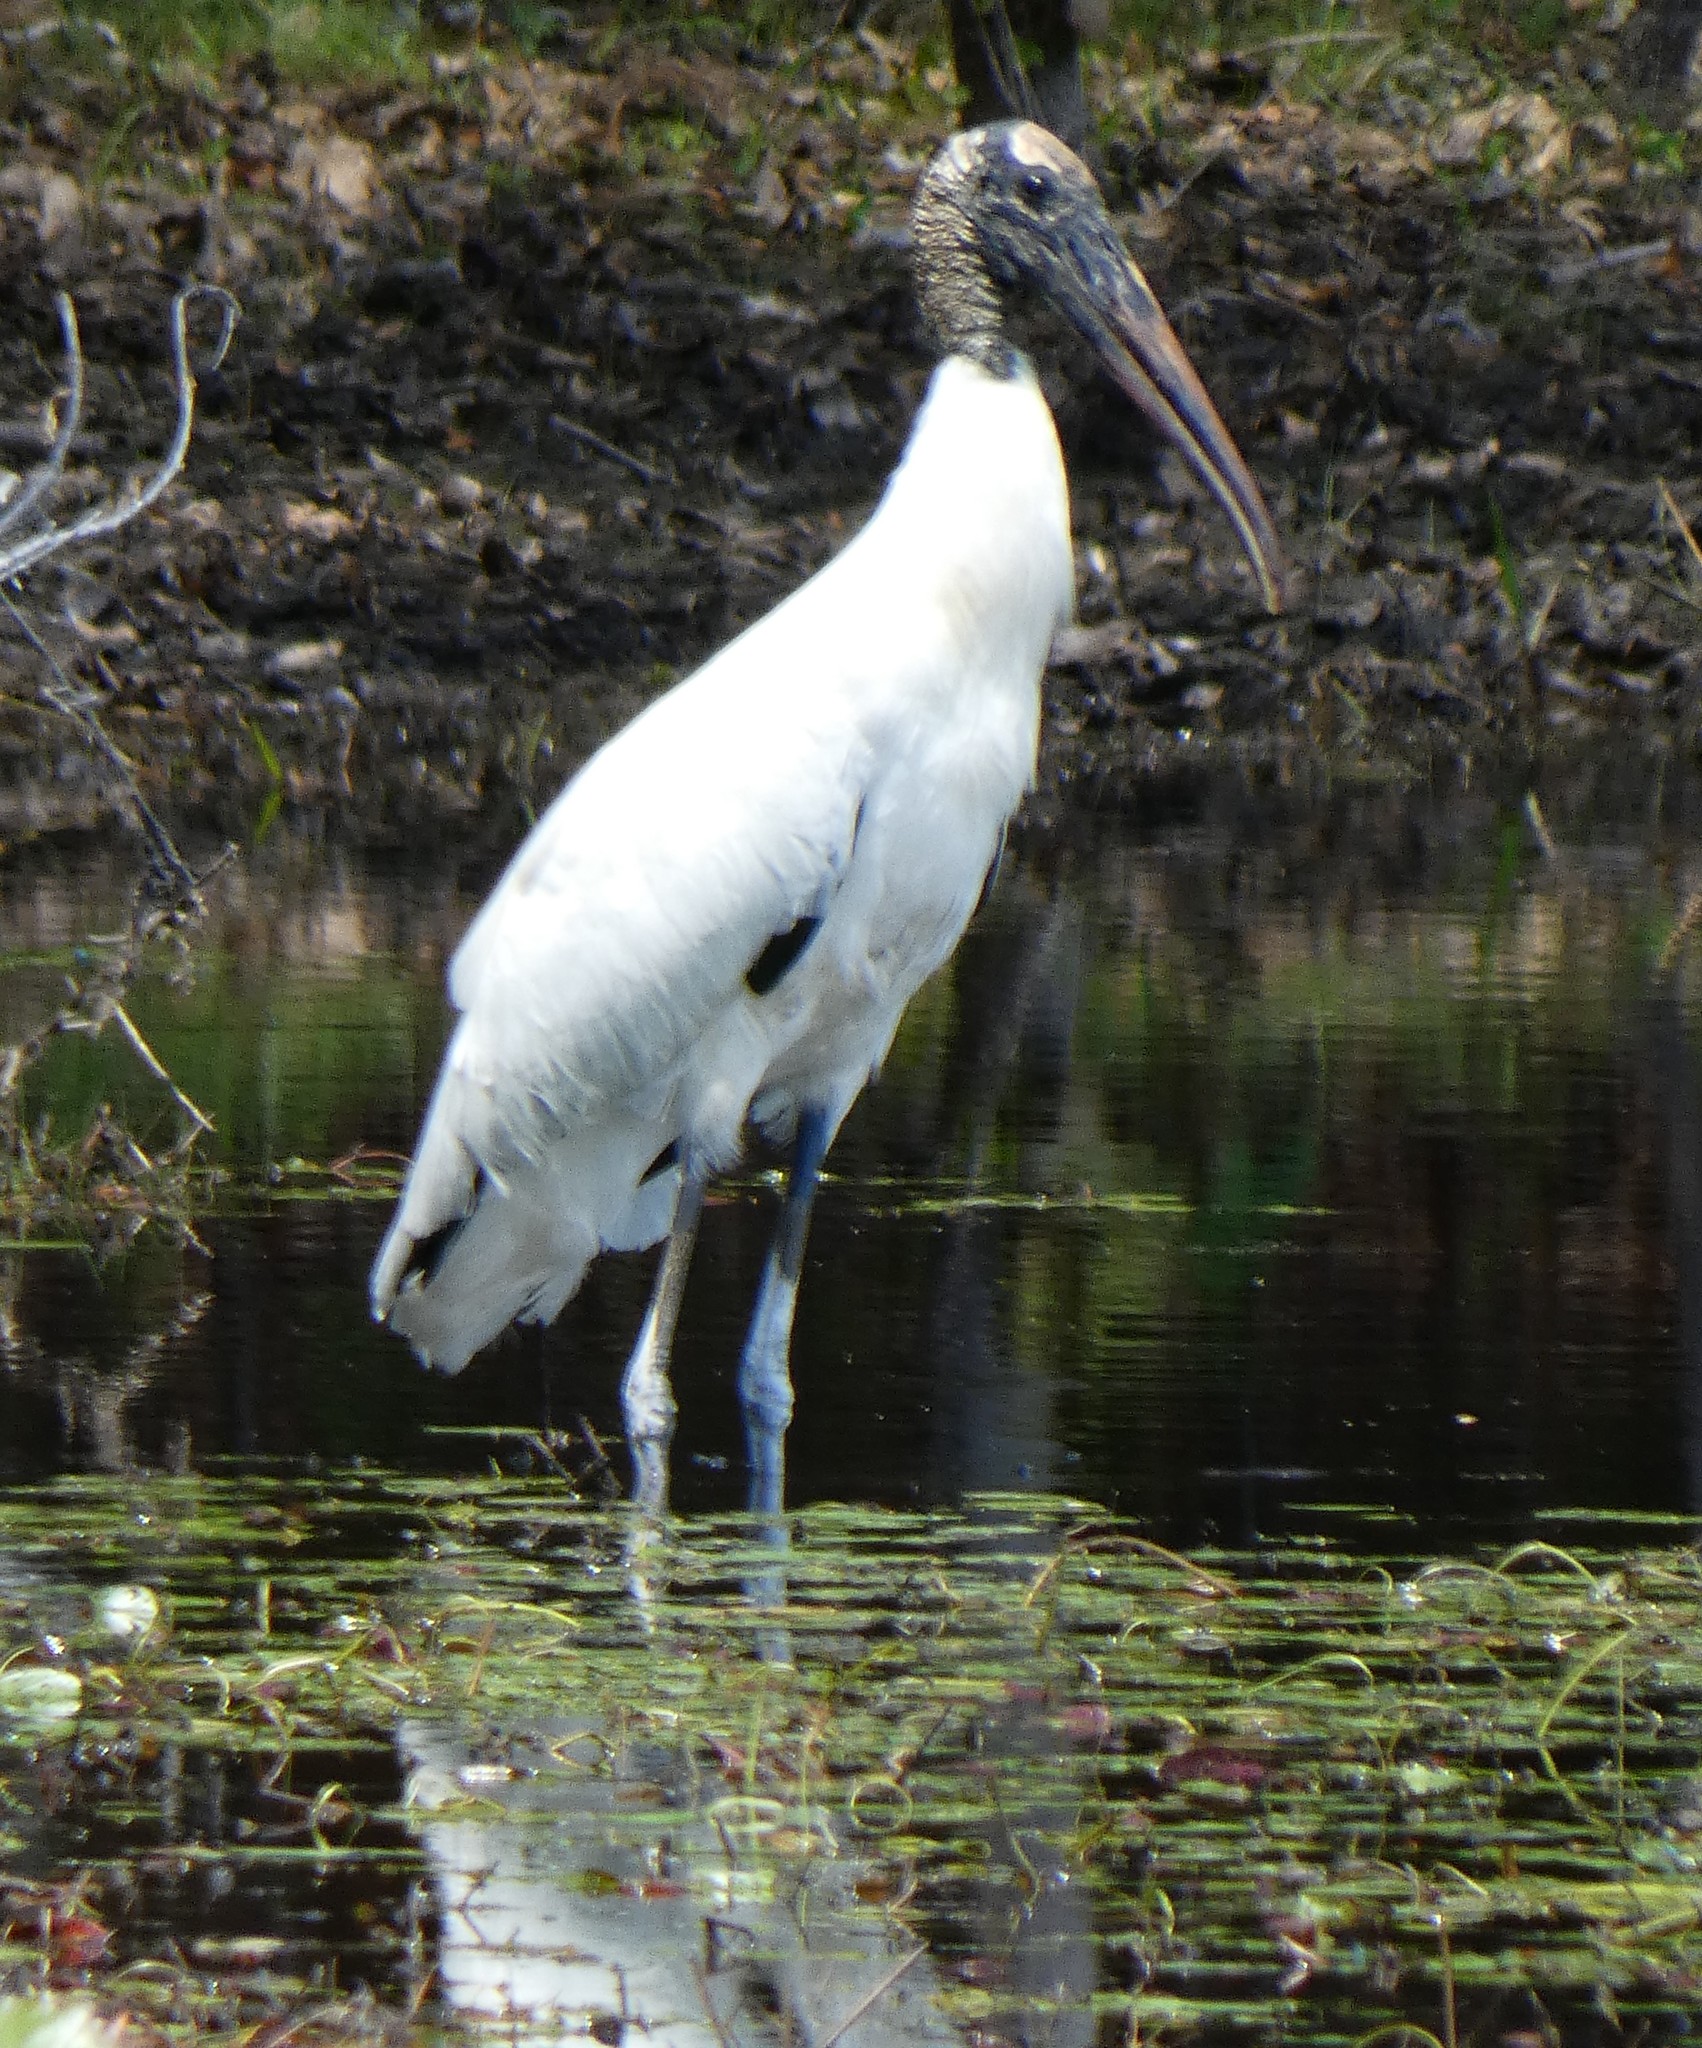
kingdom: Animalia
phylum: Chordata
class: Aves
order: Ciconiiformes
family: Ciconiidae
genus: Mycteria
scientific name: Mycteria americana
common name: Wood stork
